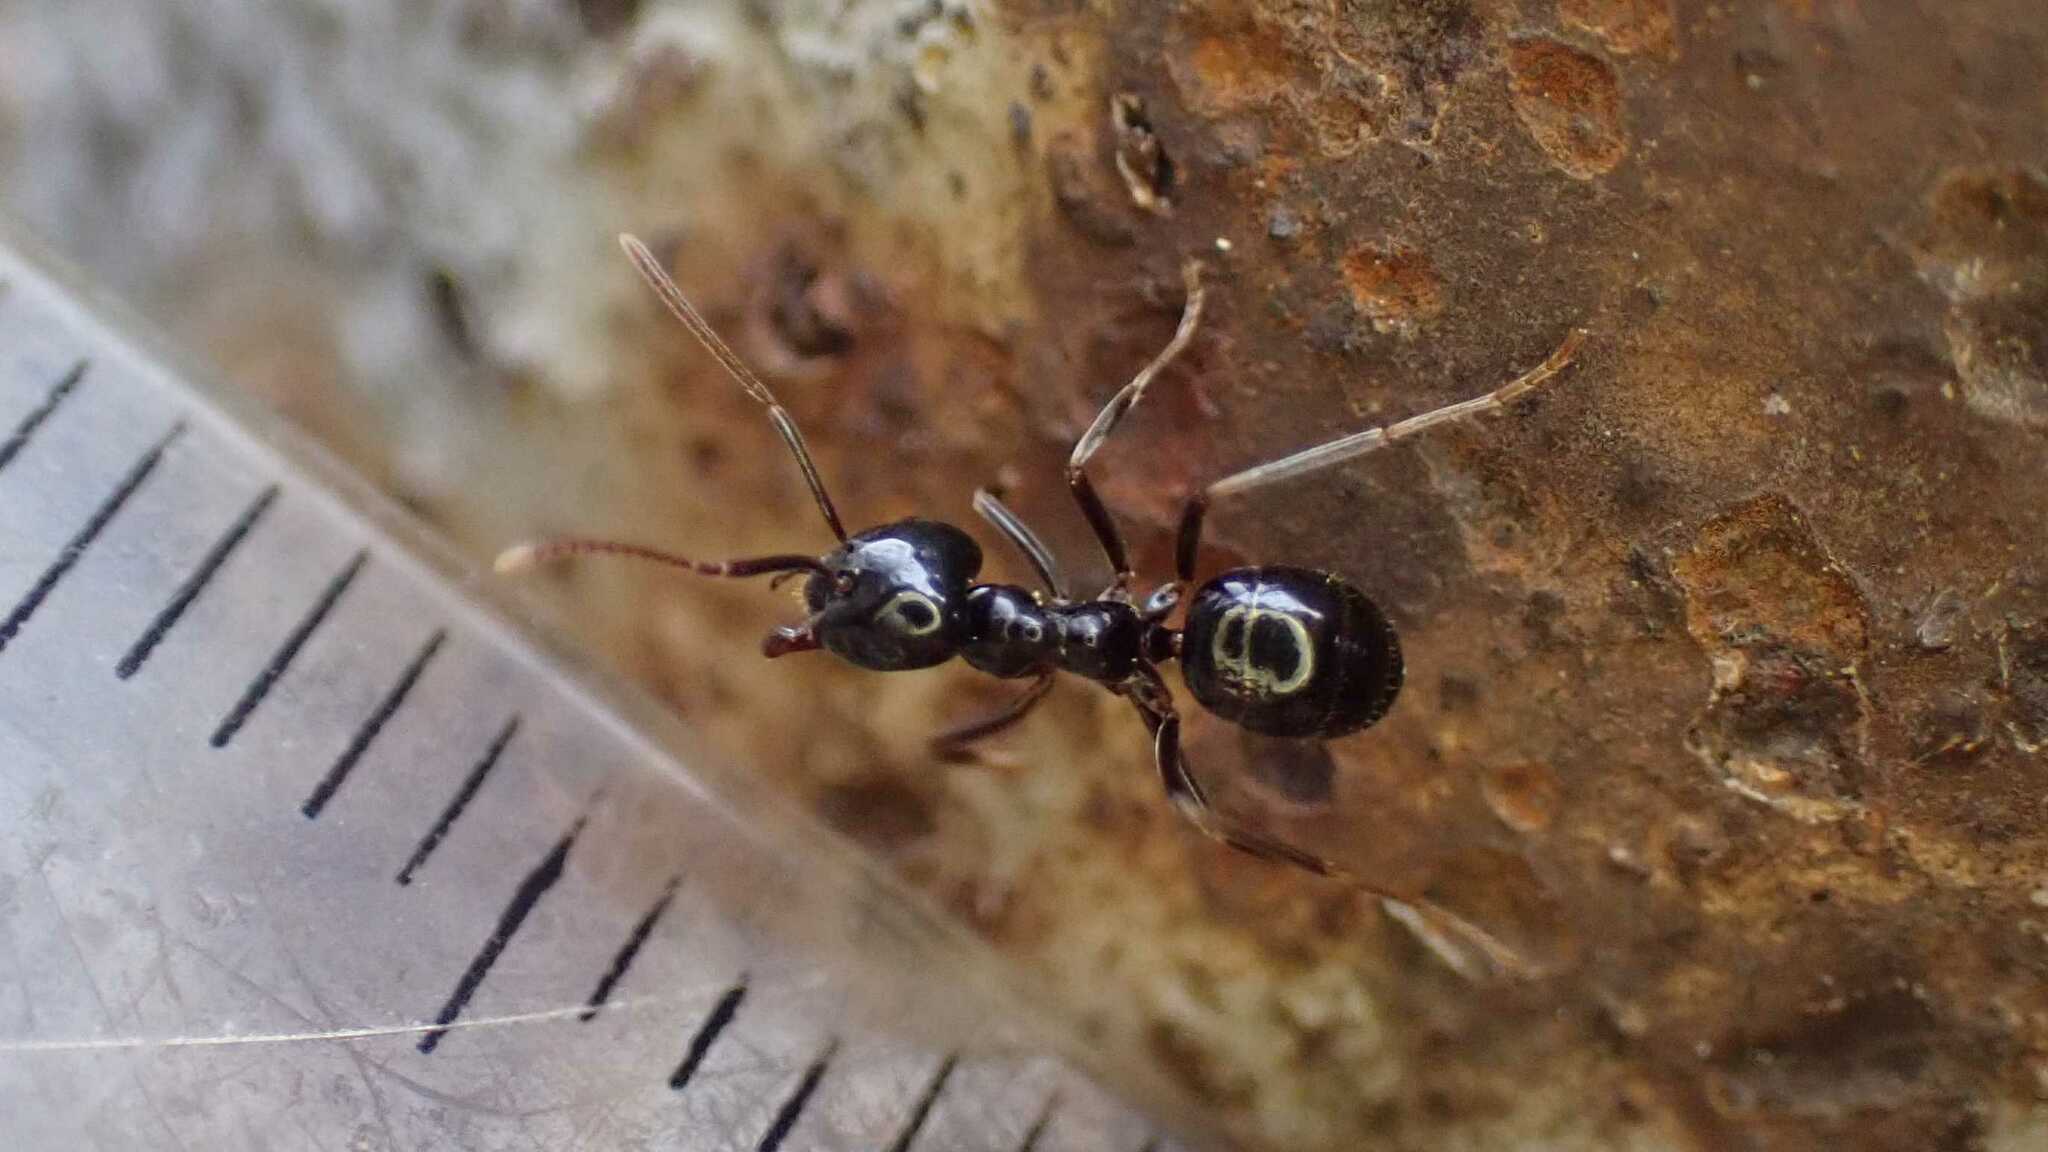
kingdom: Animalia
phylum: Arthropoda
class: Insecta
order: Hymenoptera
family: Formicidae
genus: Lasius
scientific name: Lasius fuliginosus
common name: Jet ant
